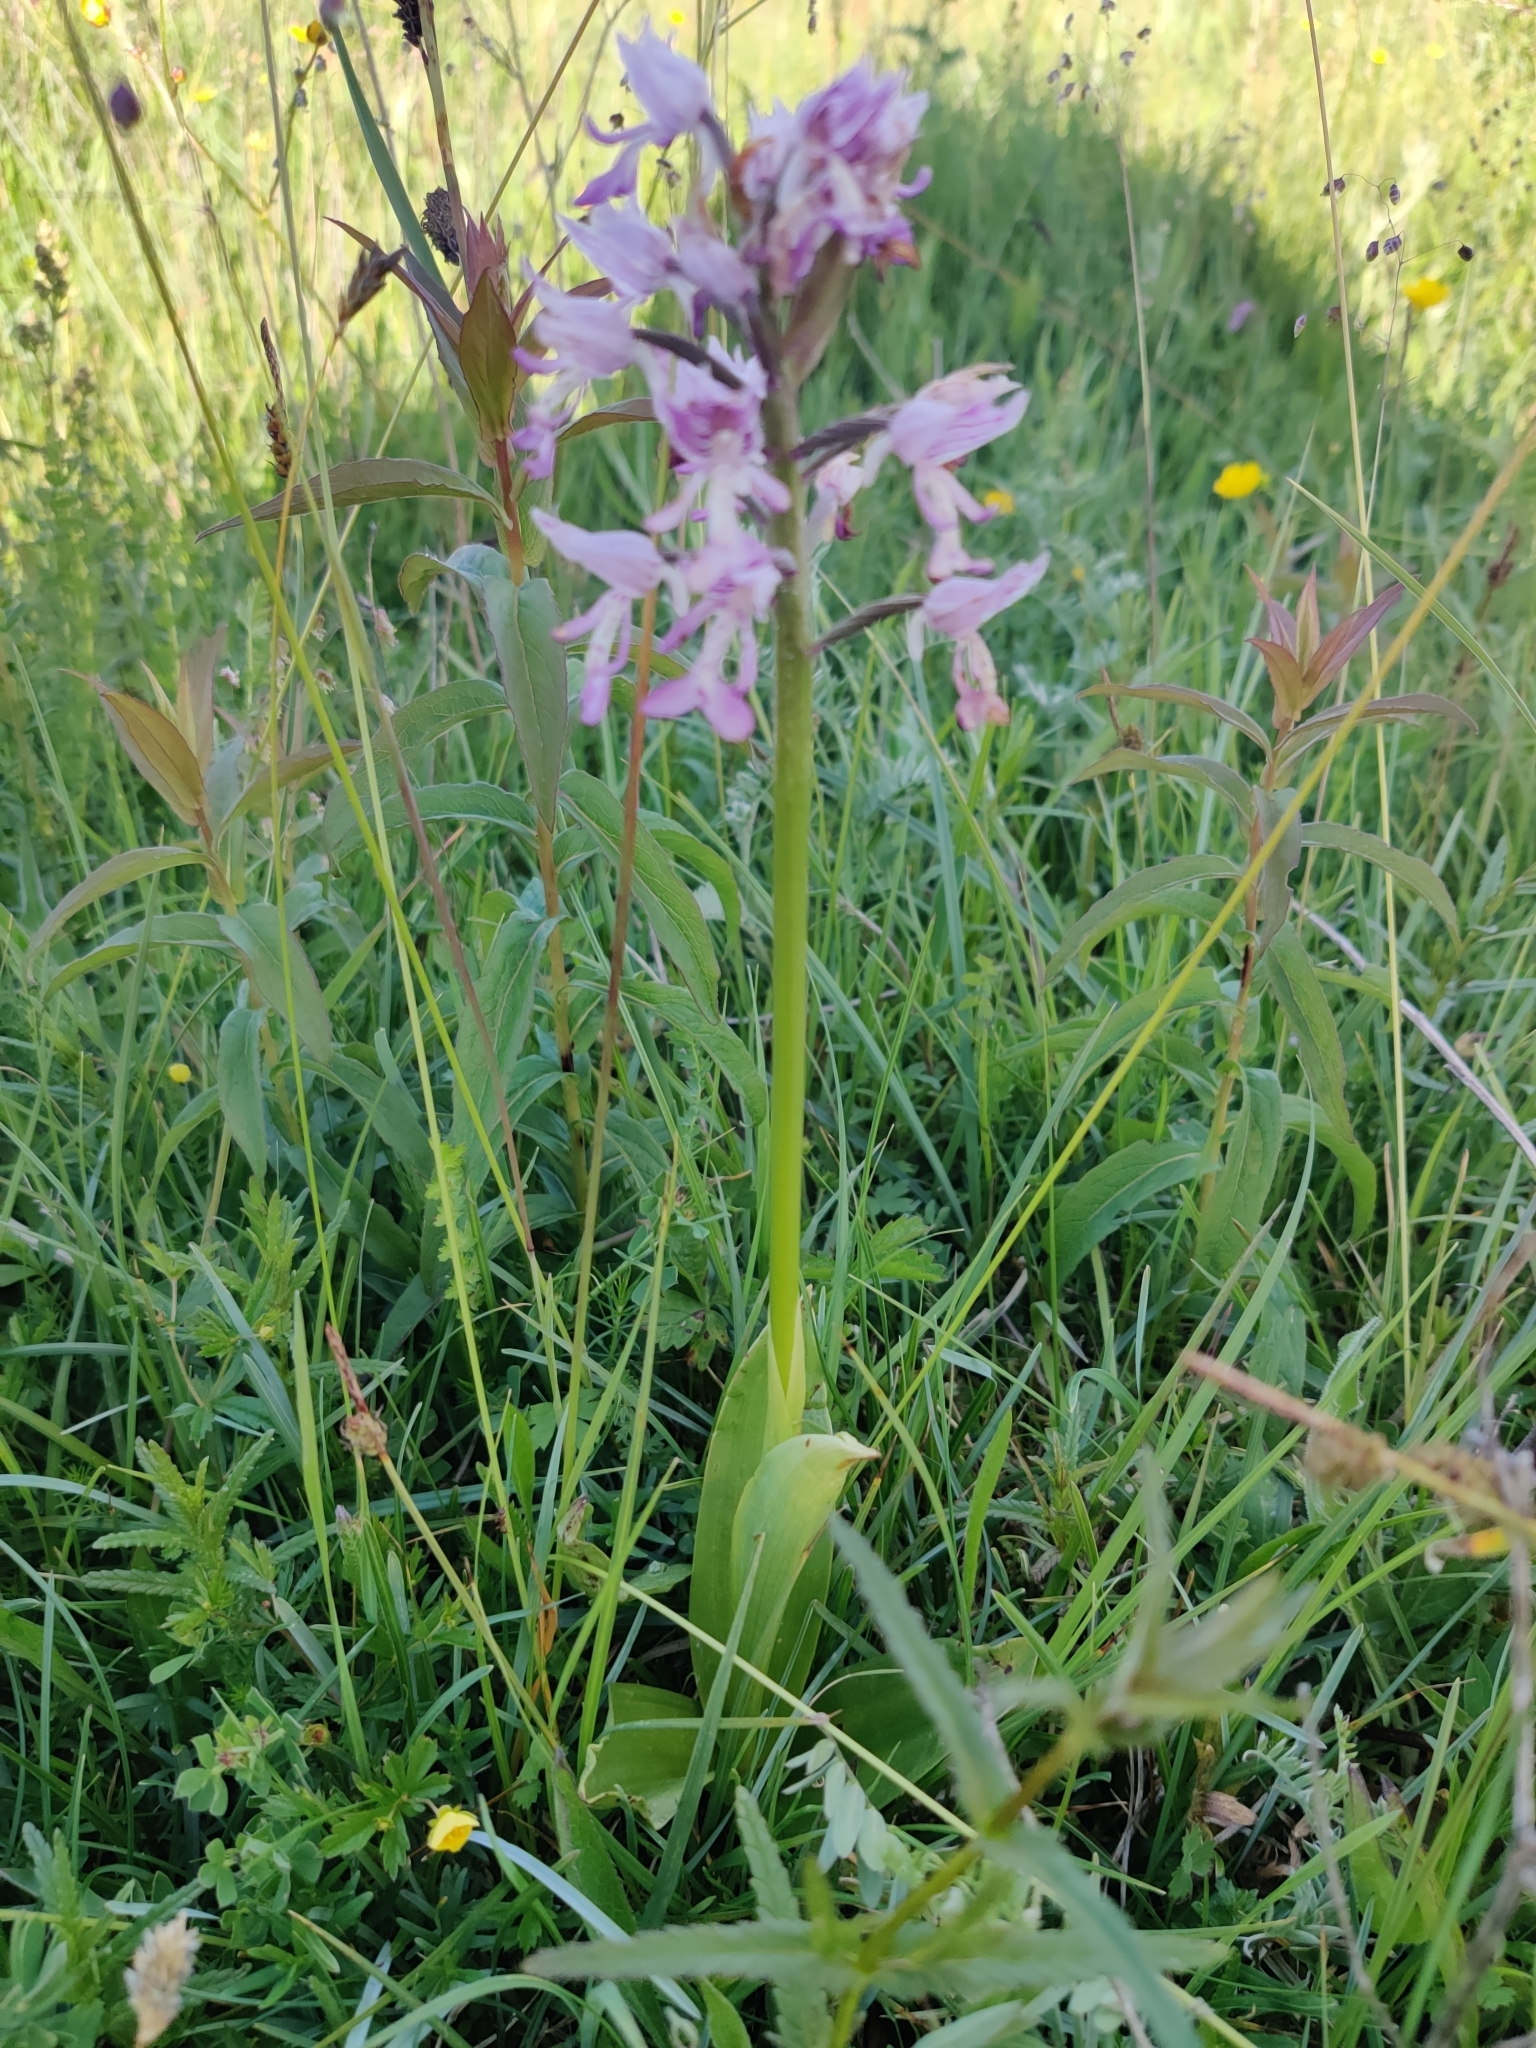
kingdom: Plantae
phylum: Tracheophyta
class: Liliopsida
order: Asparagales
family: Orchidaceae
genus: Orchis
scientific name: Orchis militaris
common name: Military orchid
